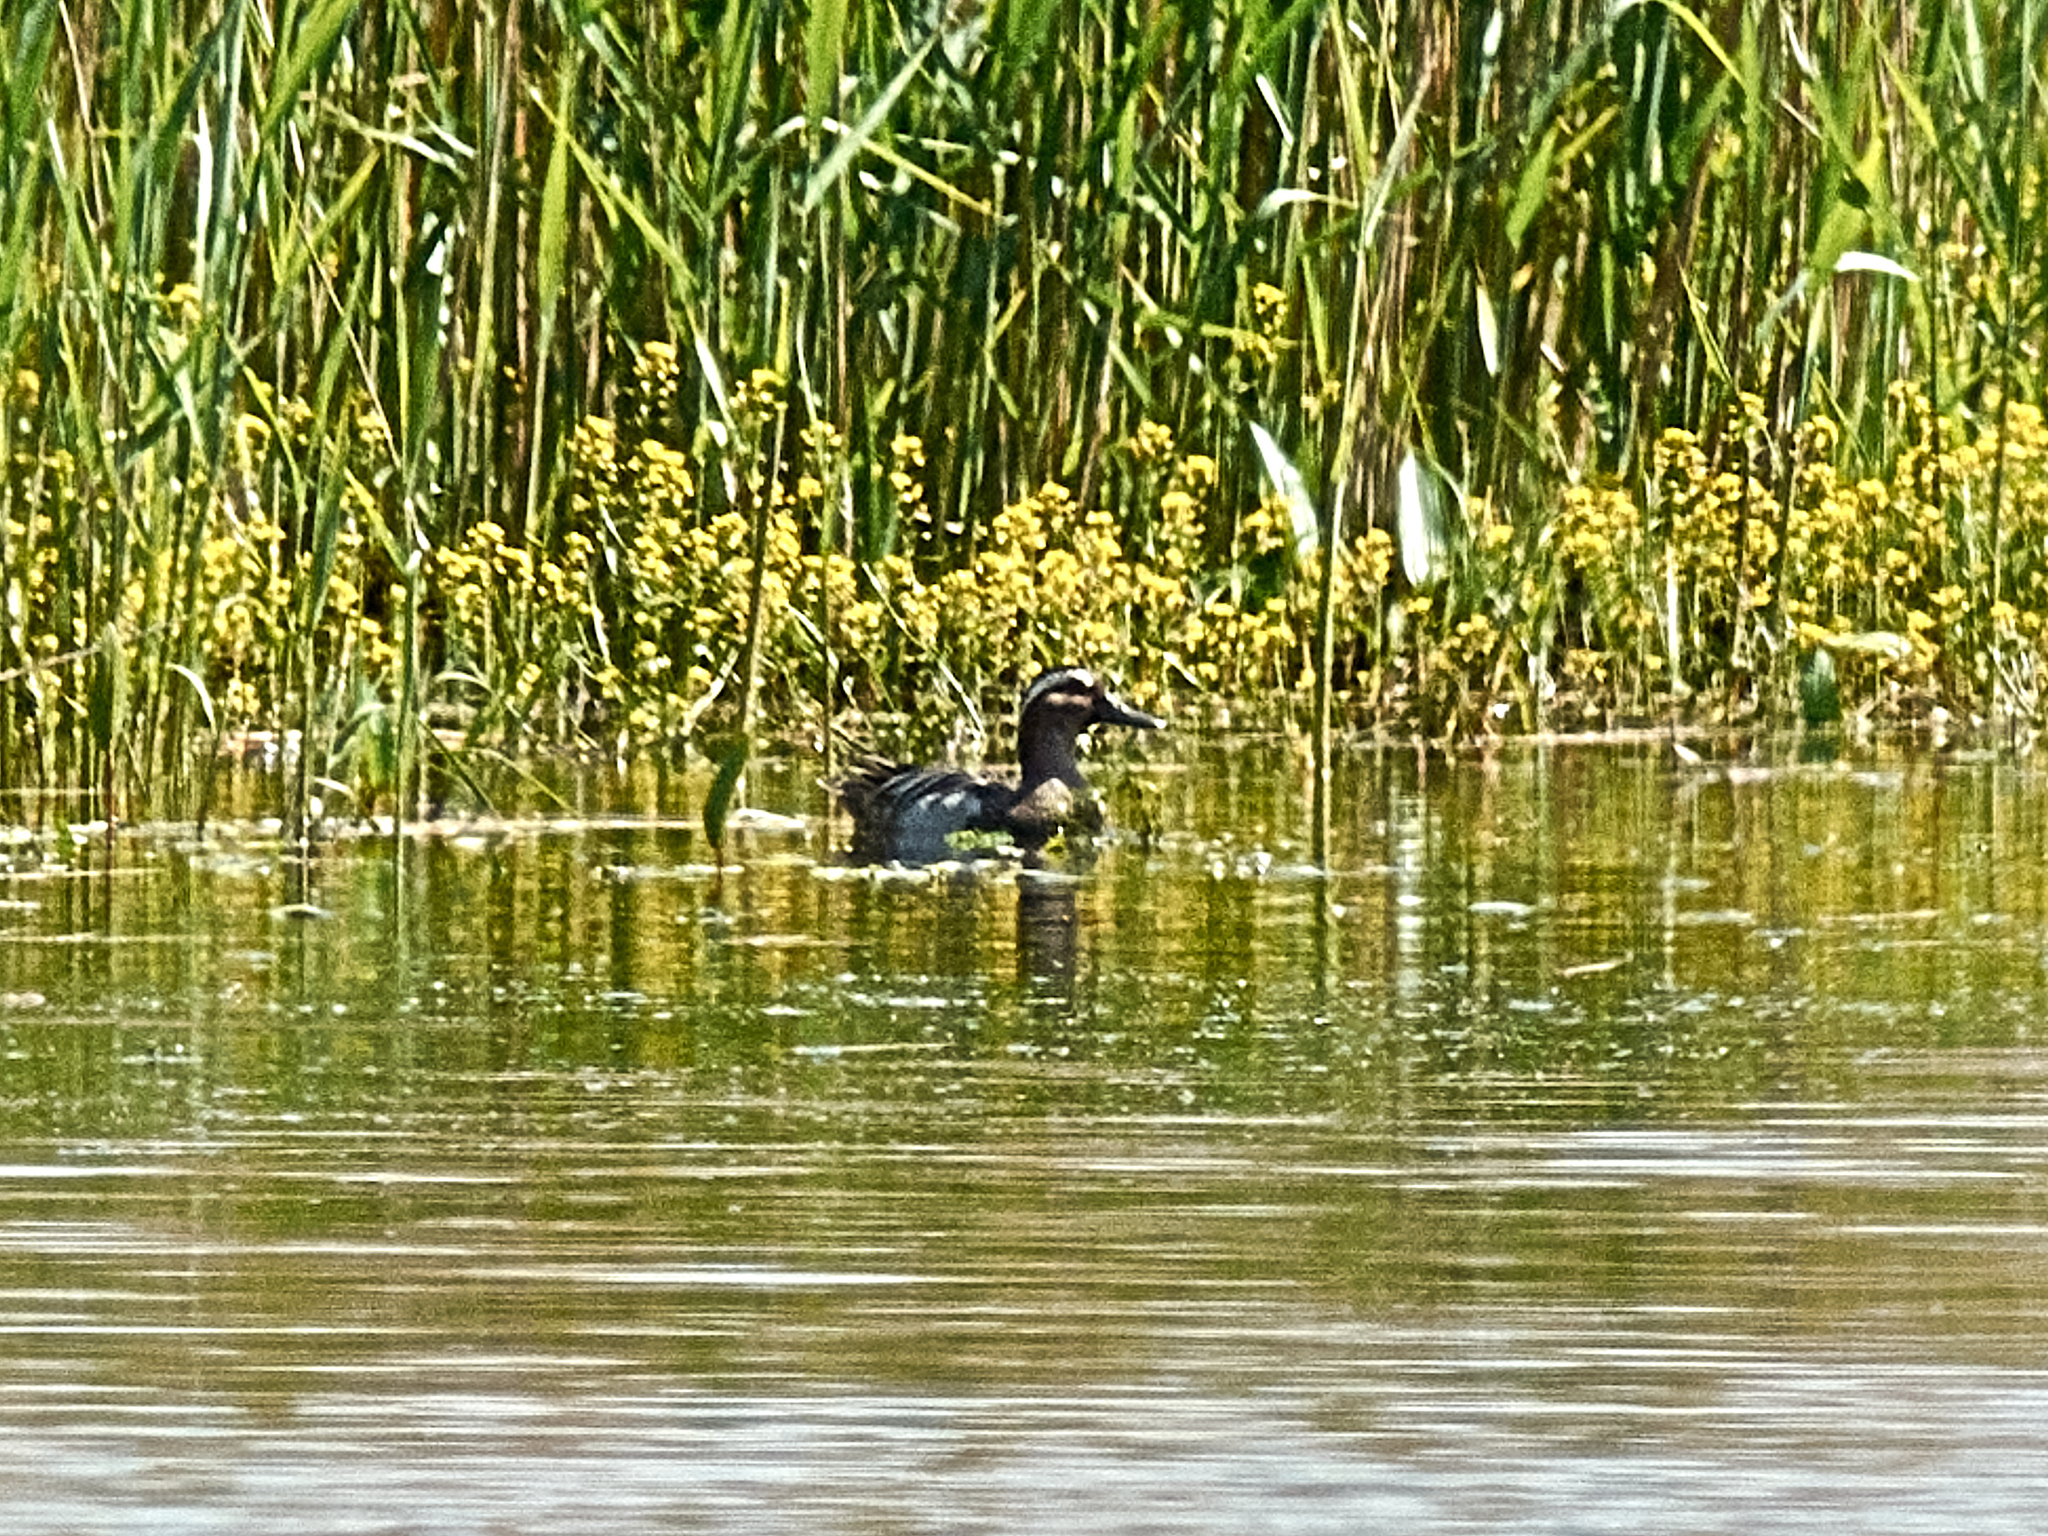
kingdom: Animalia
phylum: Chordata
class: Aves
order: Anseriformes
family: Anatidae
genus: Spatula
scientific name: Spatula querquedula
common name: Garganey
